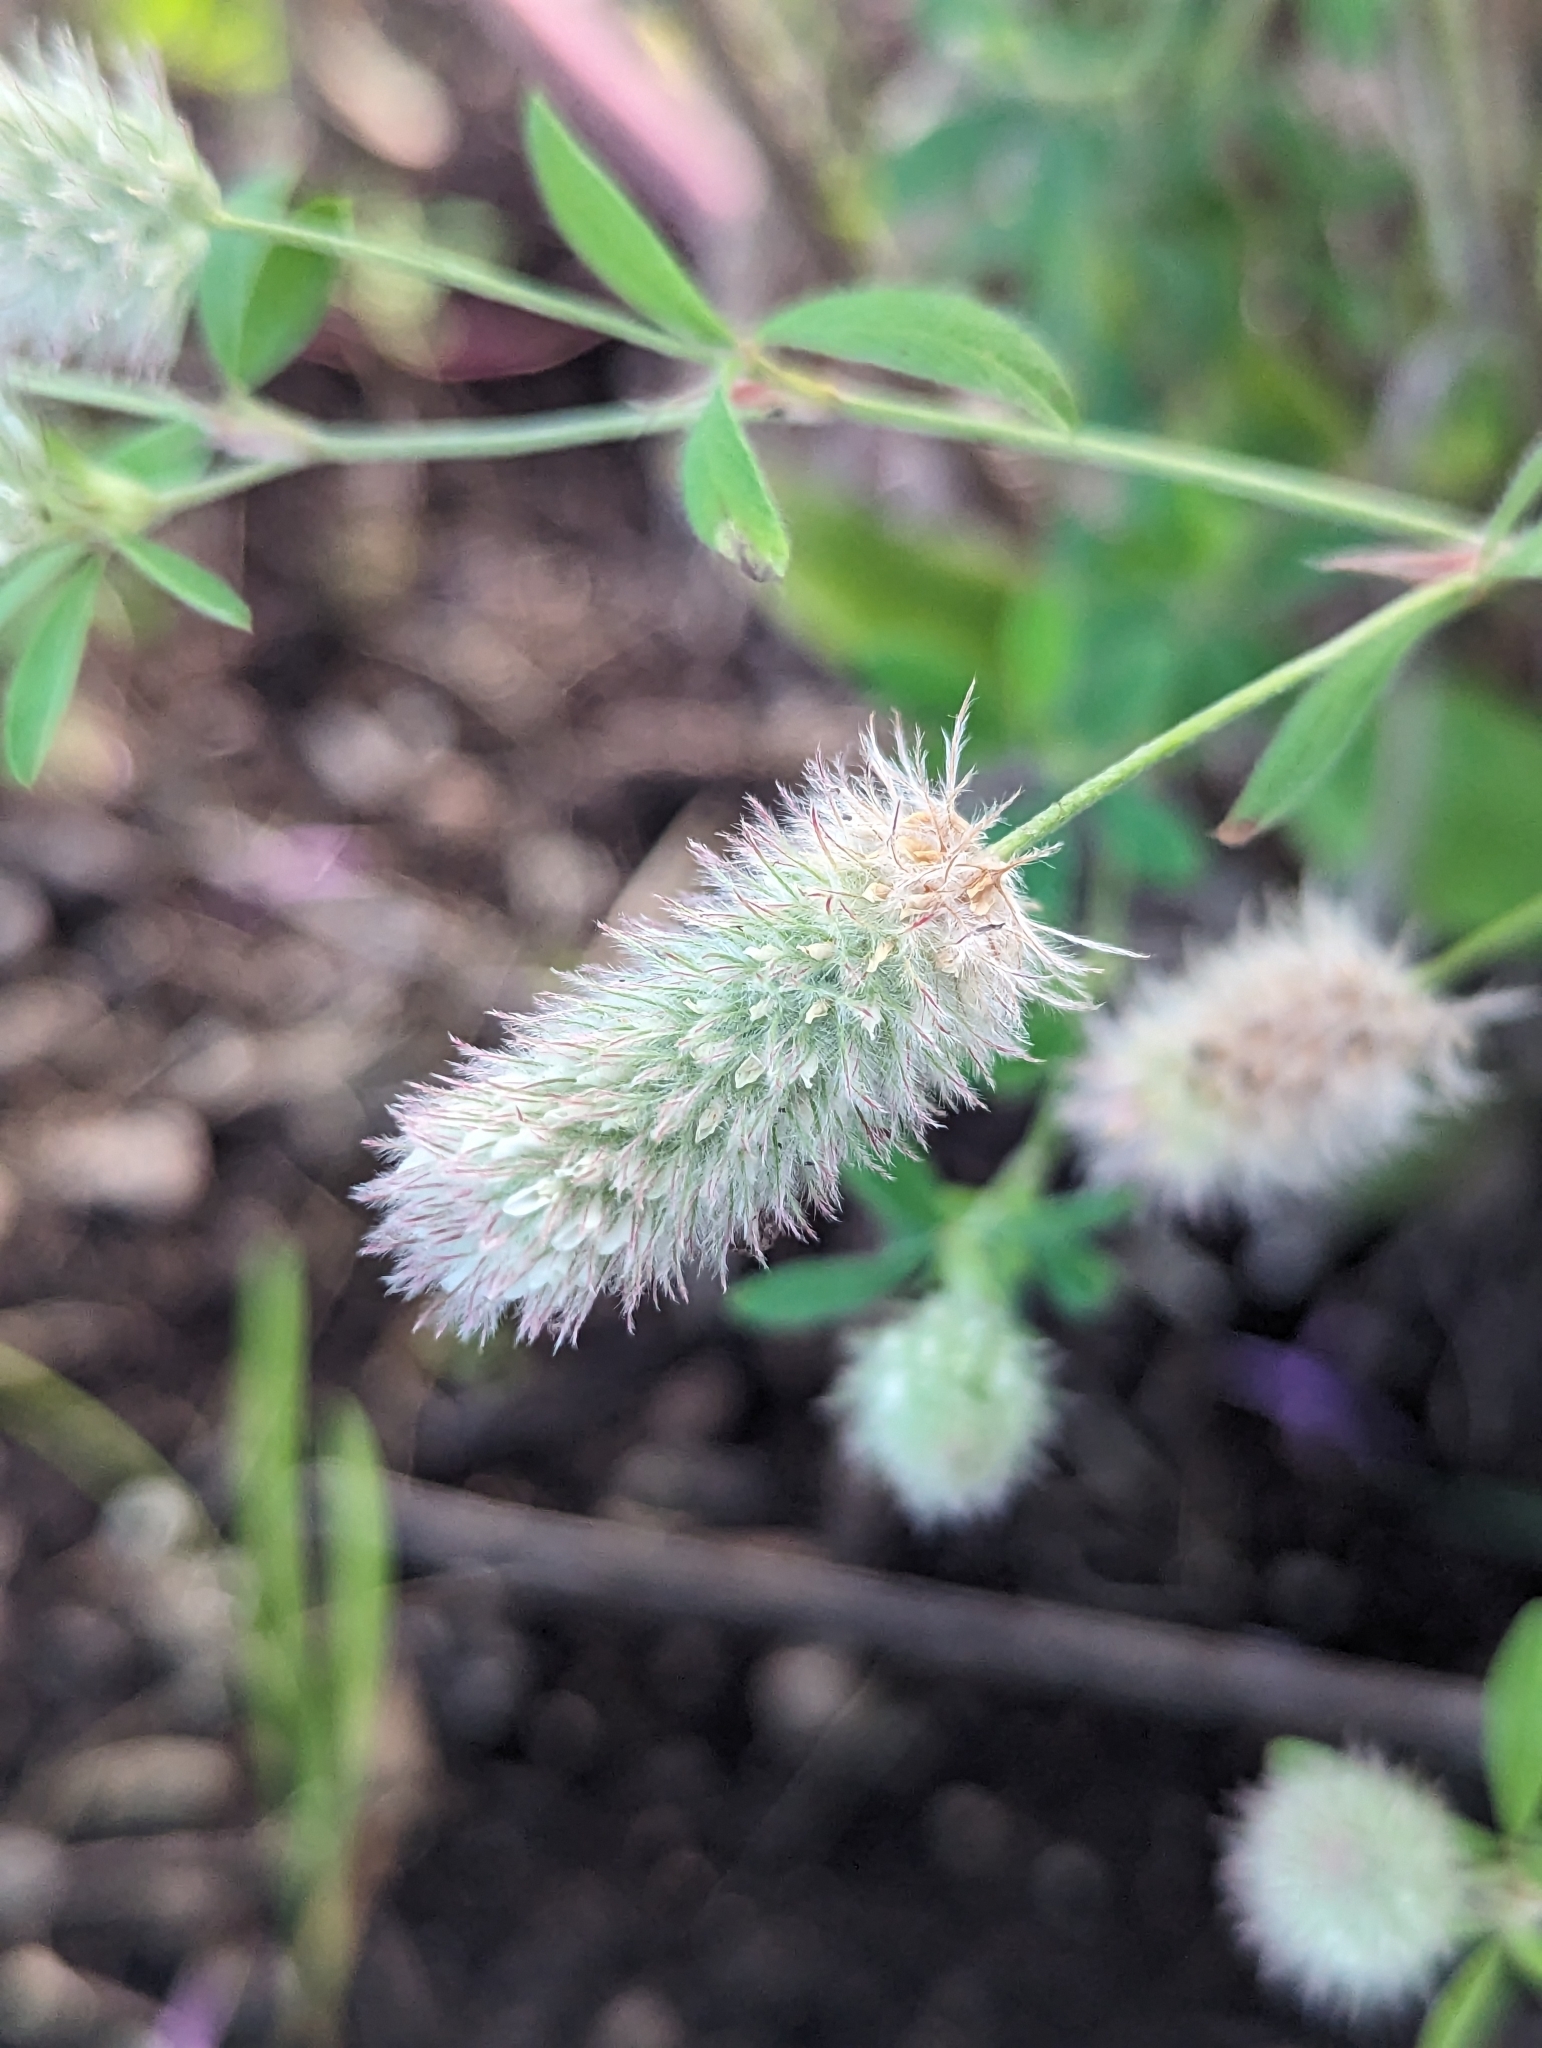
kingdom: Plantae
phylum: Tracheophyta
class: Magnoliopsida
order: Fabales
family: Fabaceae
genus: Trifolium
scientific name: Trifolium arvense
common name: Hare's-foot clover
